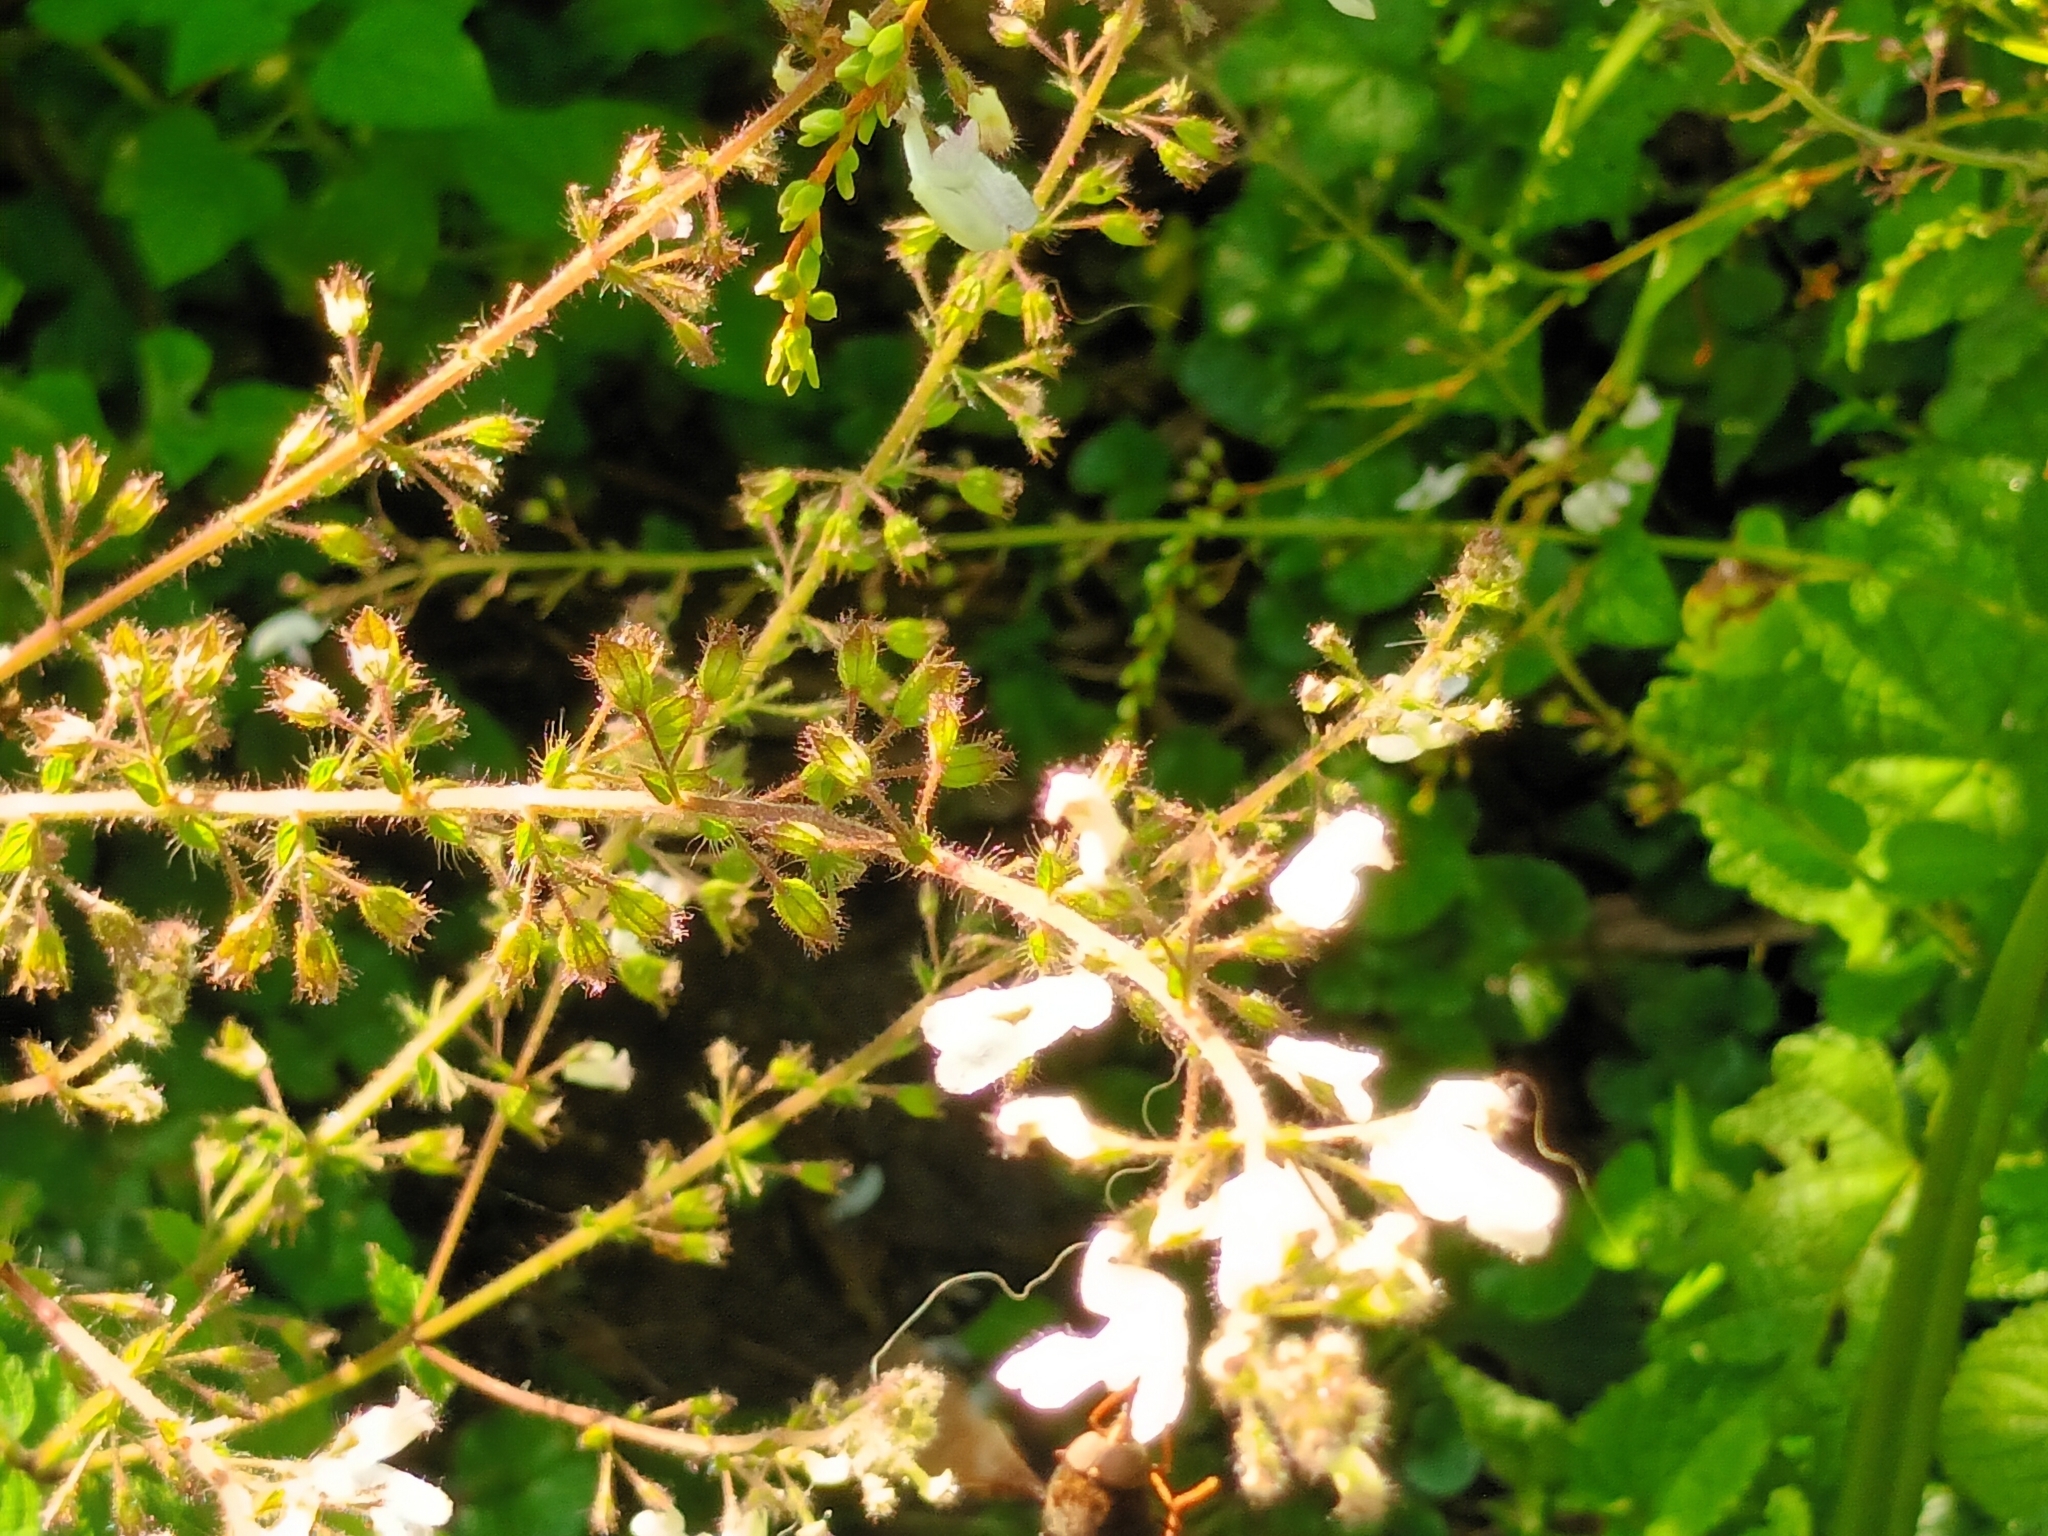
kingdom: Plantae
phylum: Tracheophyta
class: Magnoliopsida
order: Lamiales
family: Lamiaceae
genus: Equilabium
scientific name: Equilabium laxiflorum
